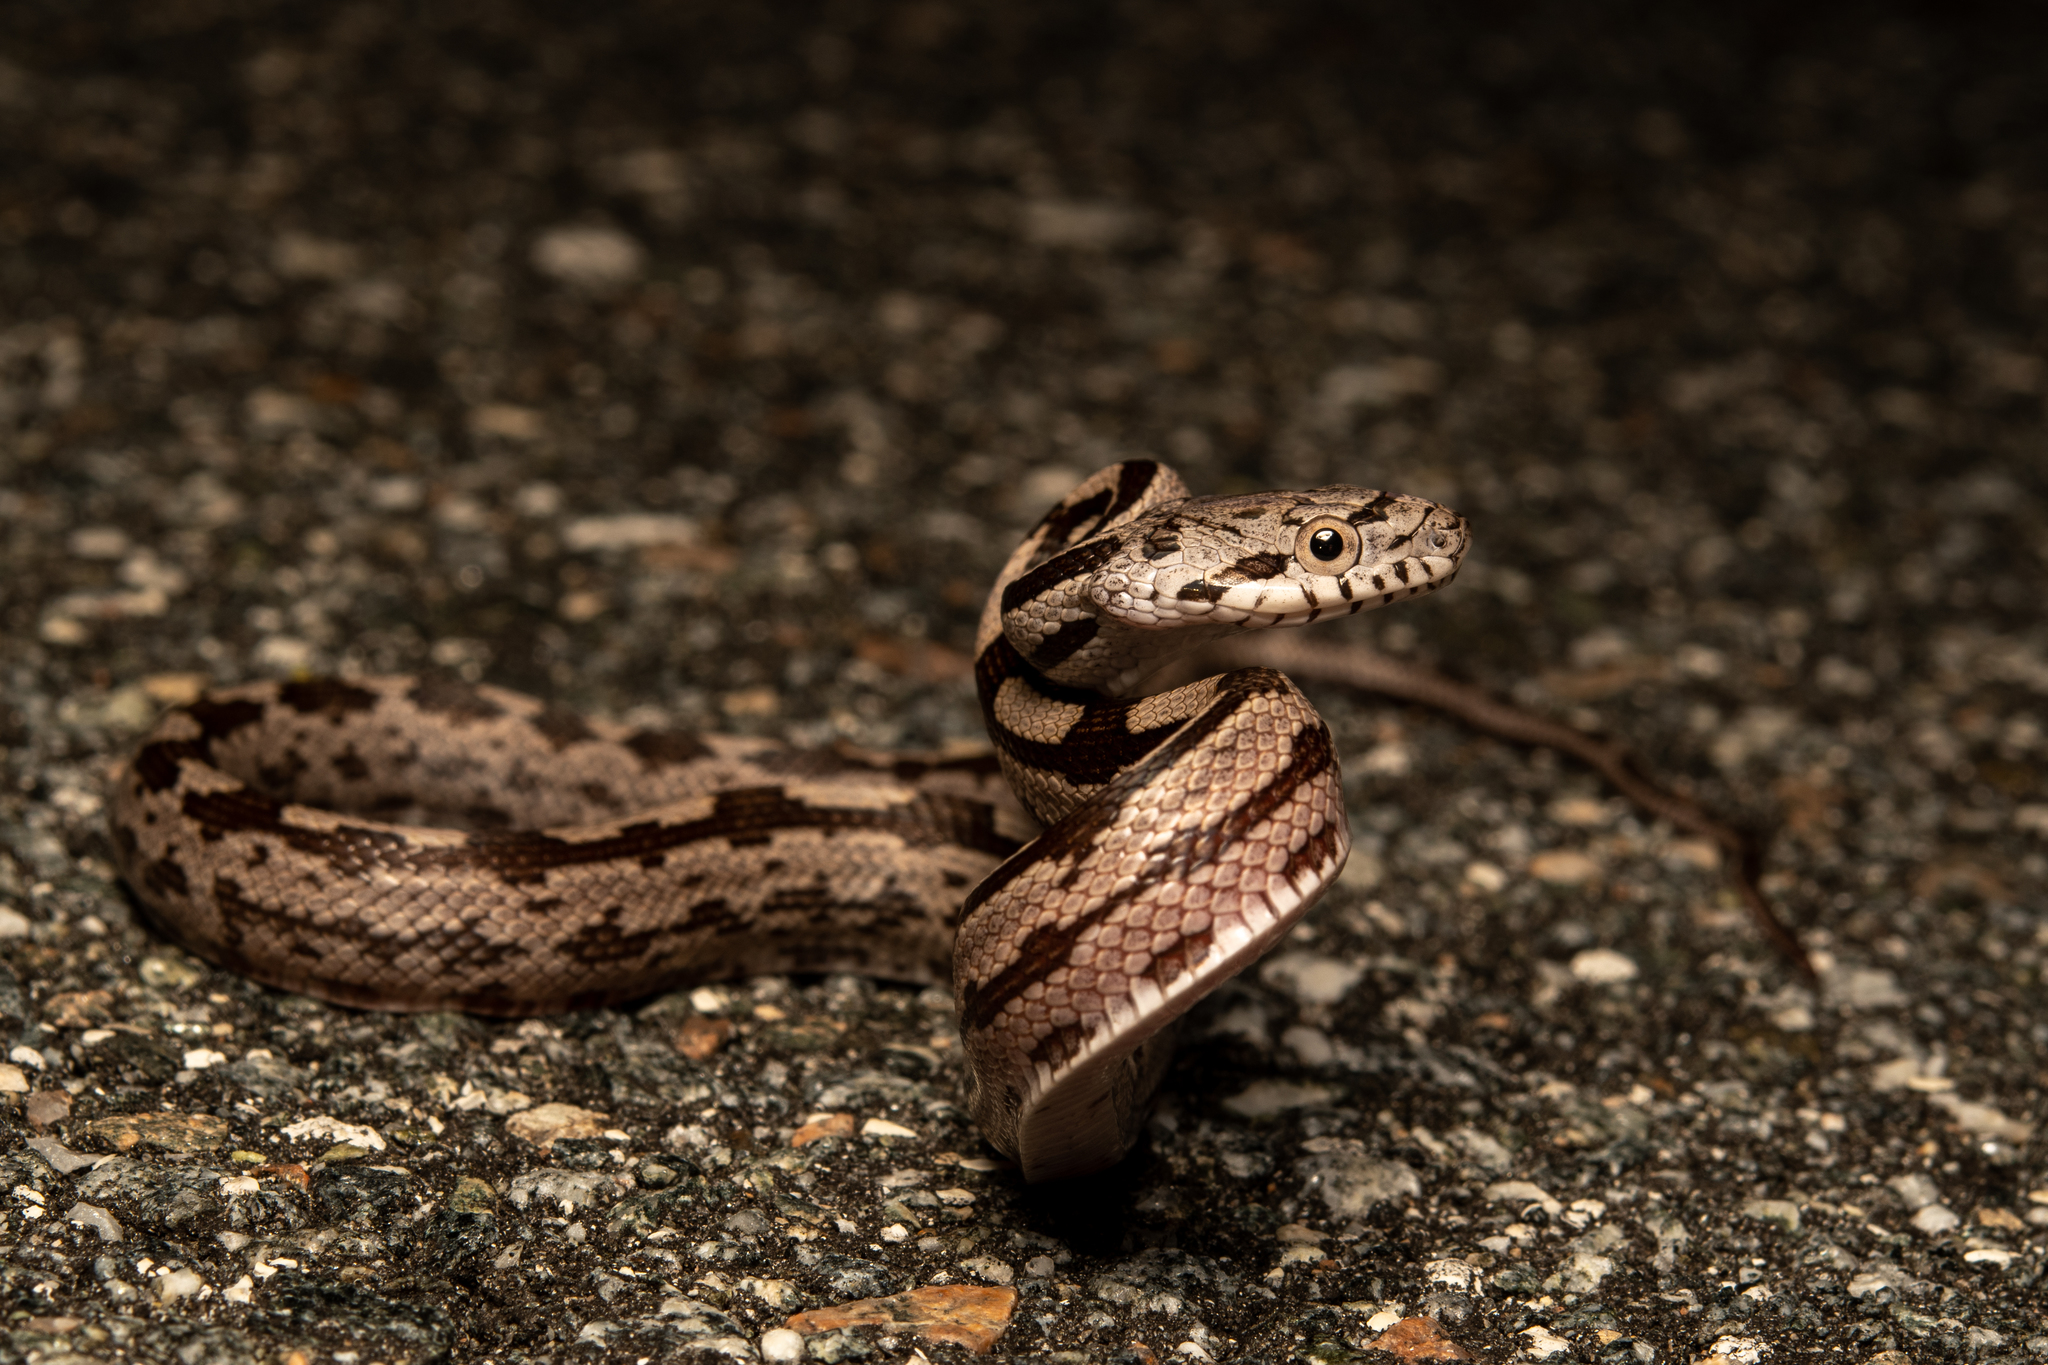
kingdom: Animalia
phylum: Chordata
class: Squamata
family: Colubridae
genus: Pantherophis
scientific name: Pantherophis
